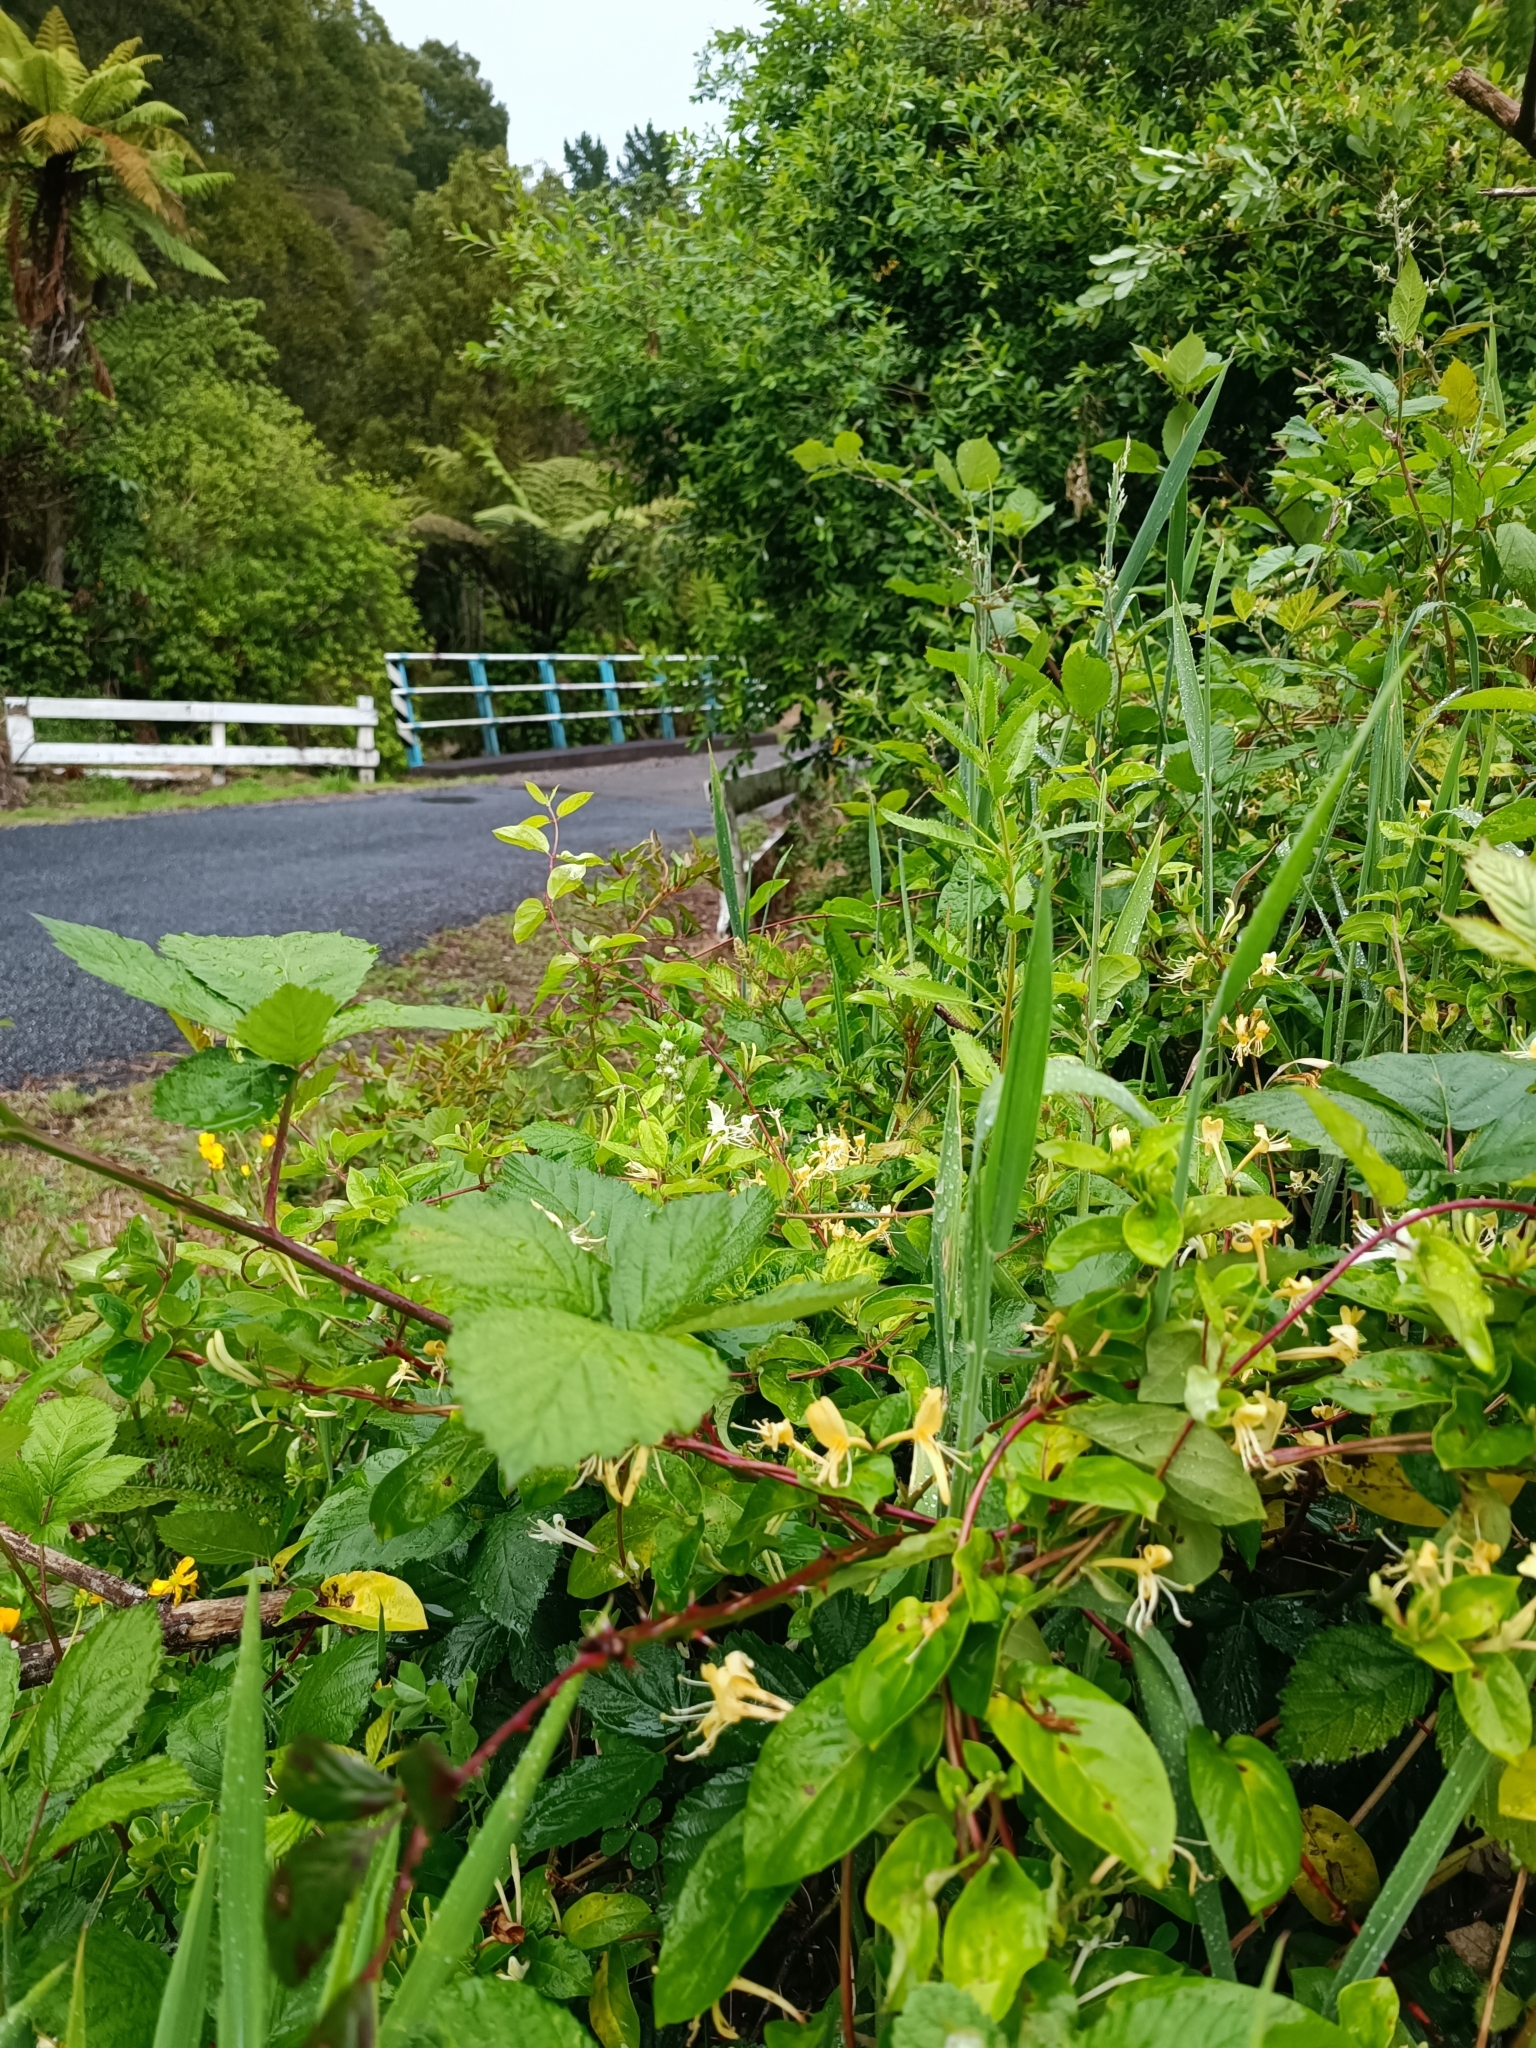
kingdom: Plantae
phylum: Tracheophyta
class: Magnoliopsida
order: Dipsacales
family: Caprifoliaceae
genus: Lonicera
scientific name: Lonicera japonica
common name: Japanese honeysuckle
